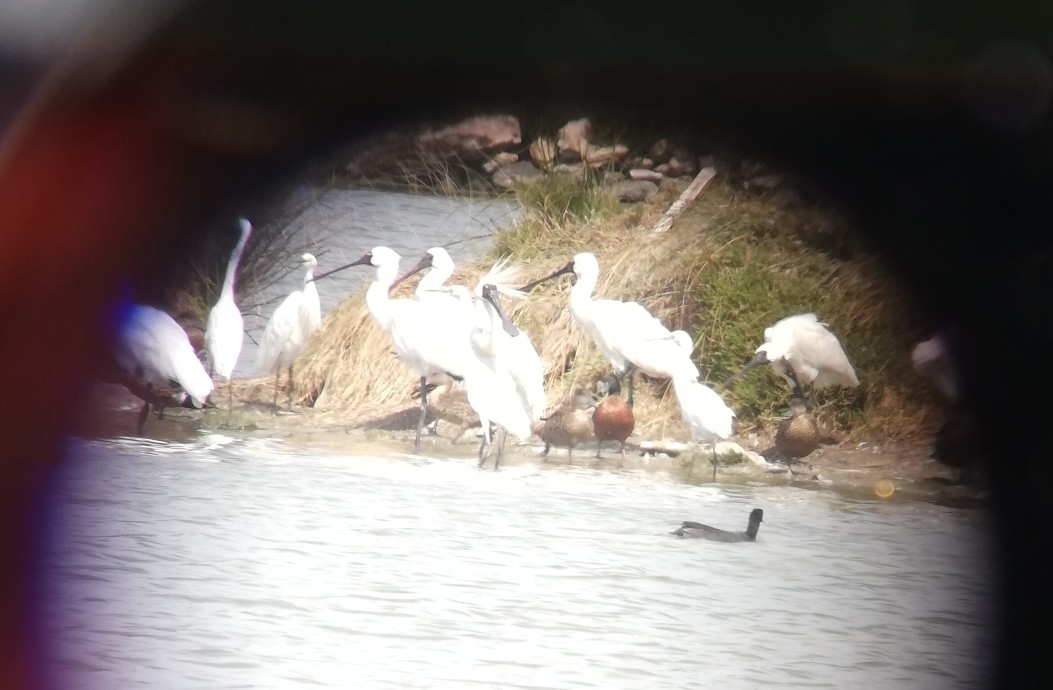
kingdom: Animalia
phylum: Chordata
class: Aves
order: Pelecaniformes
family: Threskiornithidae
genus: Platalea
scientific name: Platalea regia
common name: Royal spoonbill
